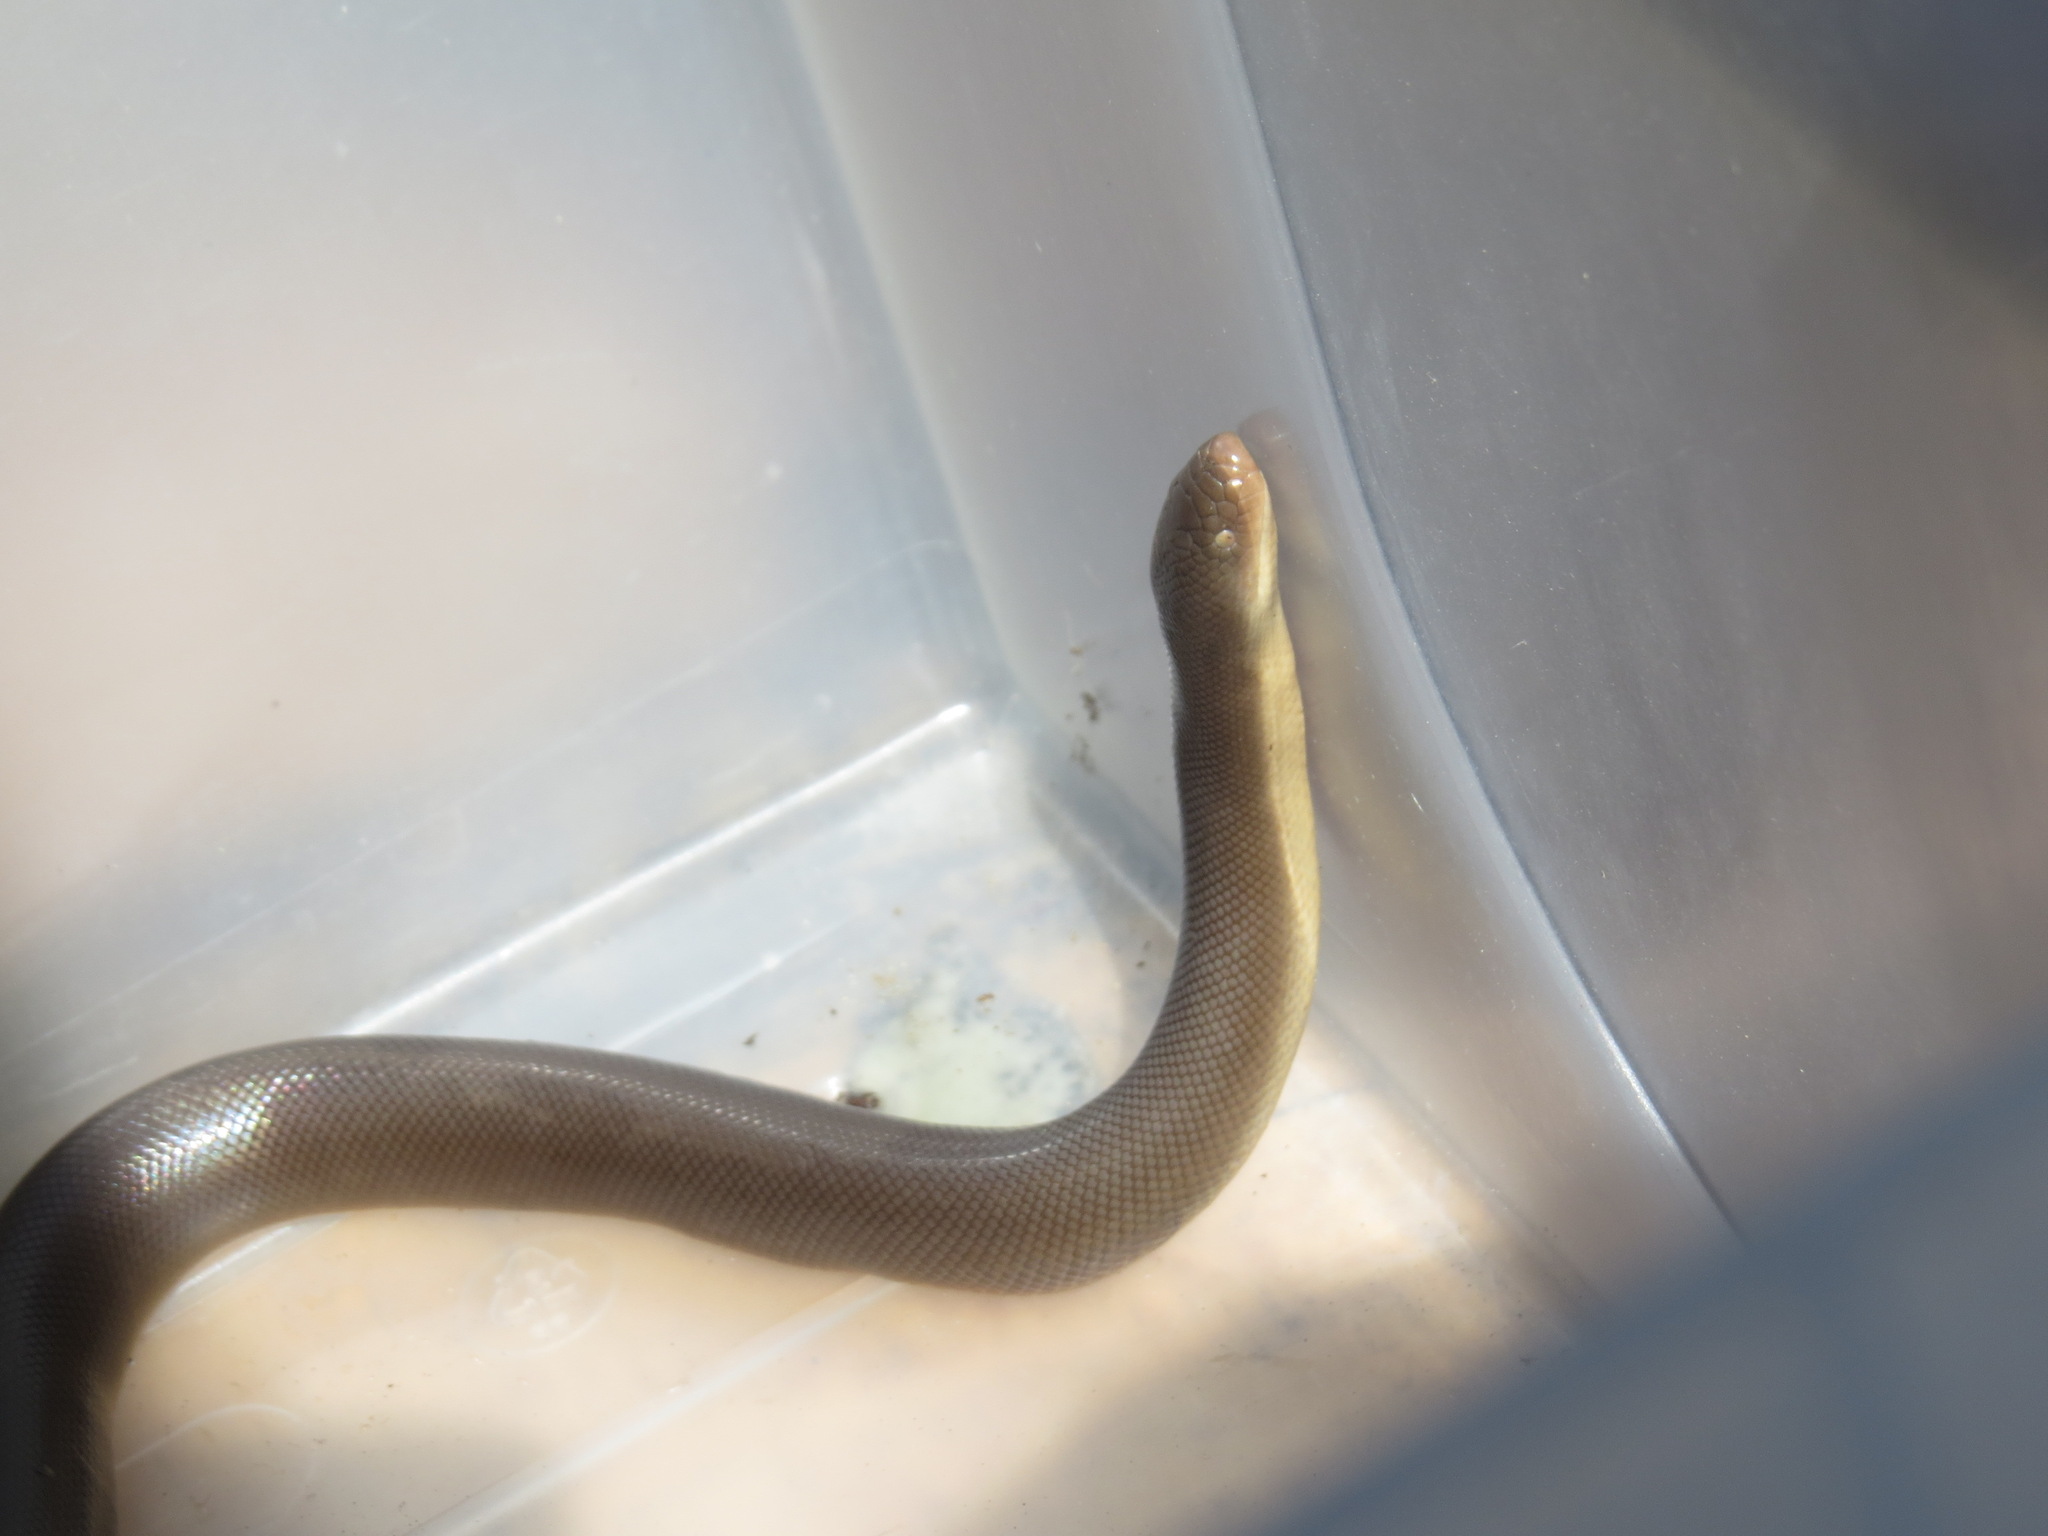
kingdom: Animalia
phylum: Chordata
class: Squamata
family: Boidae
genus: Charina
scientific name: Charina bottae
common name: Northern rubber boa
